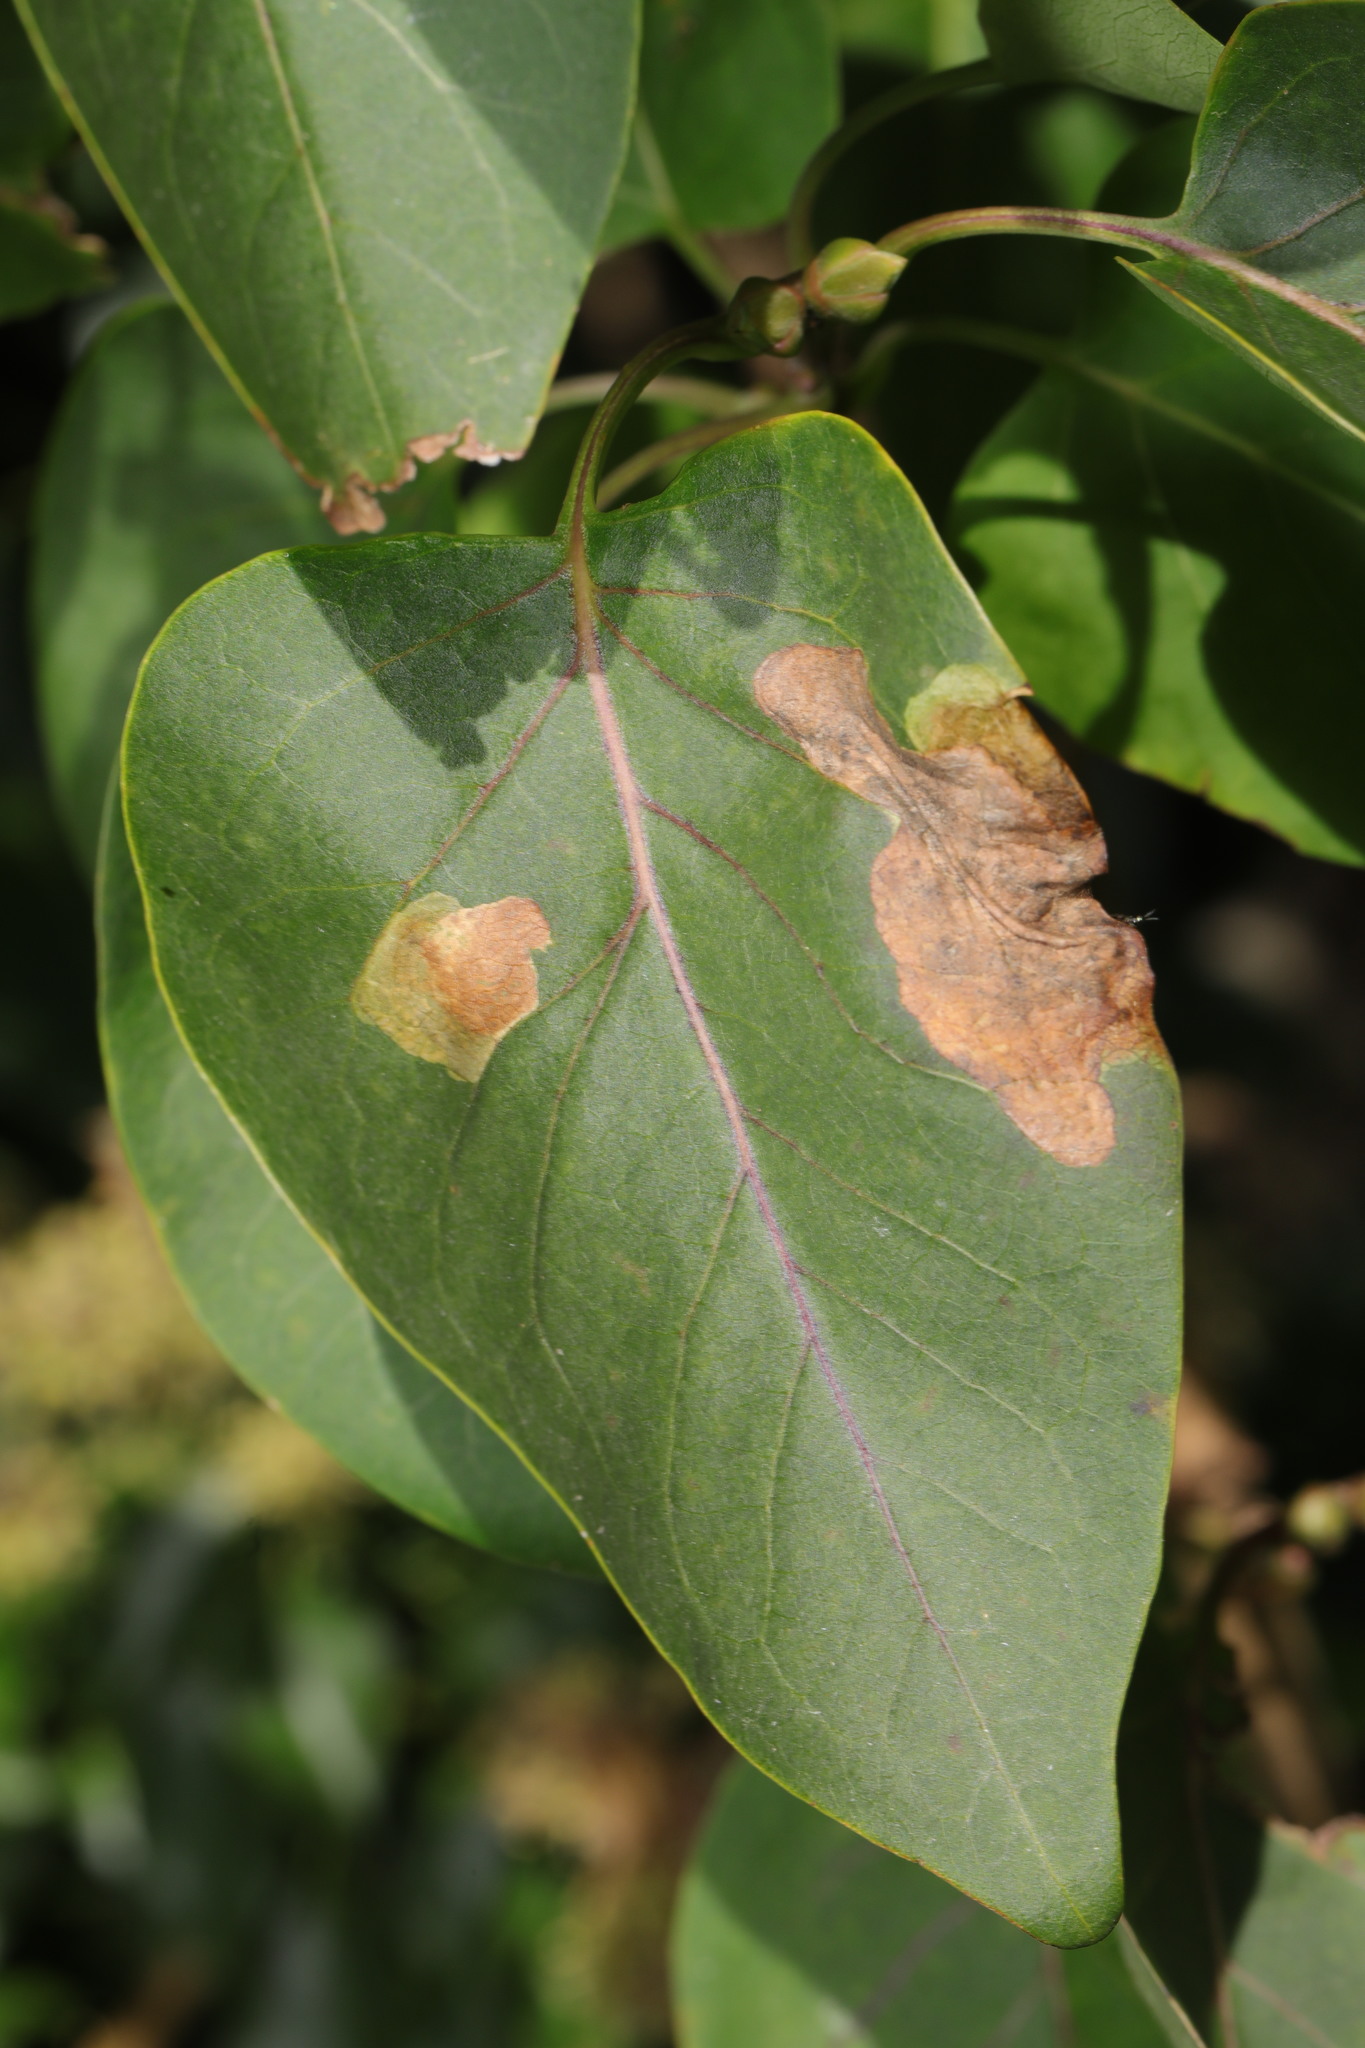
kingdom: Animalia
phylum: Arthropoda
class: Insecta
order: Lepidoptera
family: Gracillariidae
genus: Gracillaria
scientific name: Gracillaria syringella
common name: Common slender
